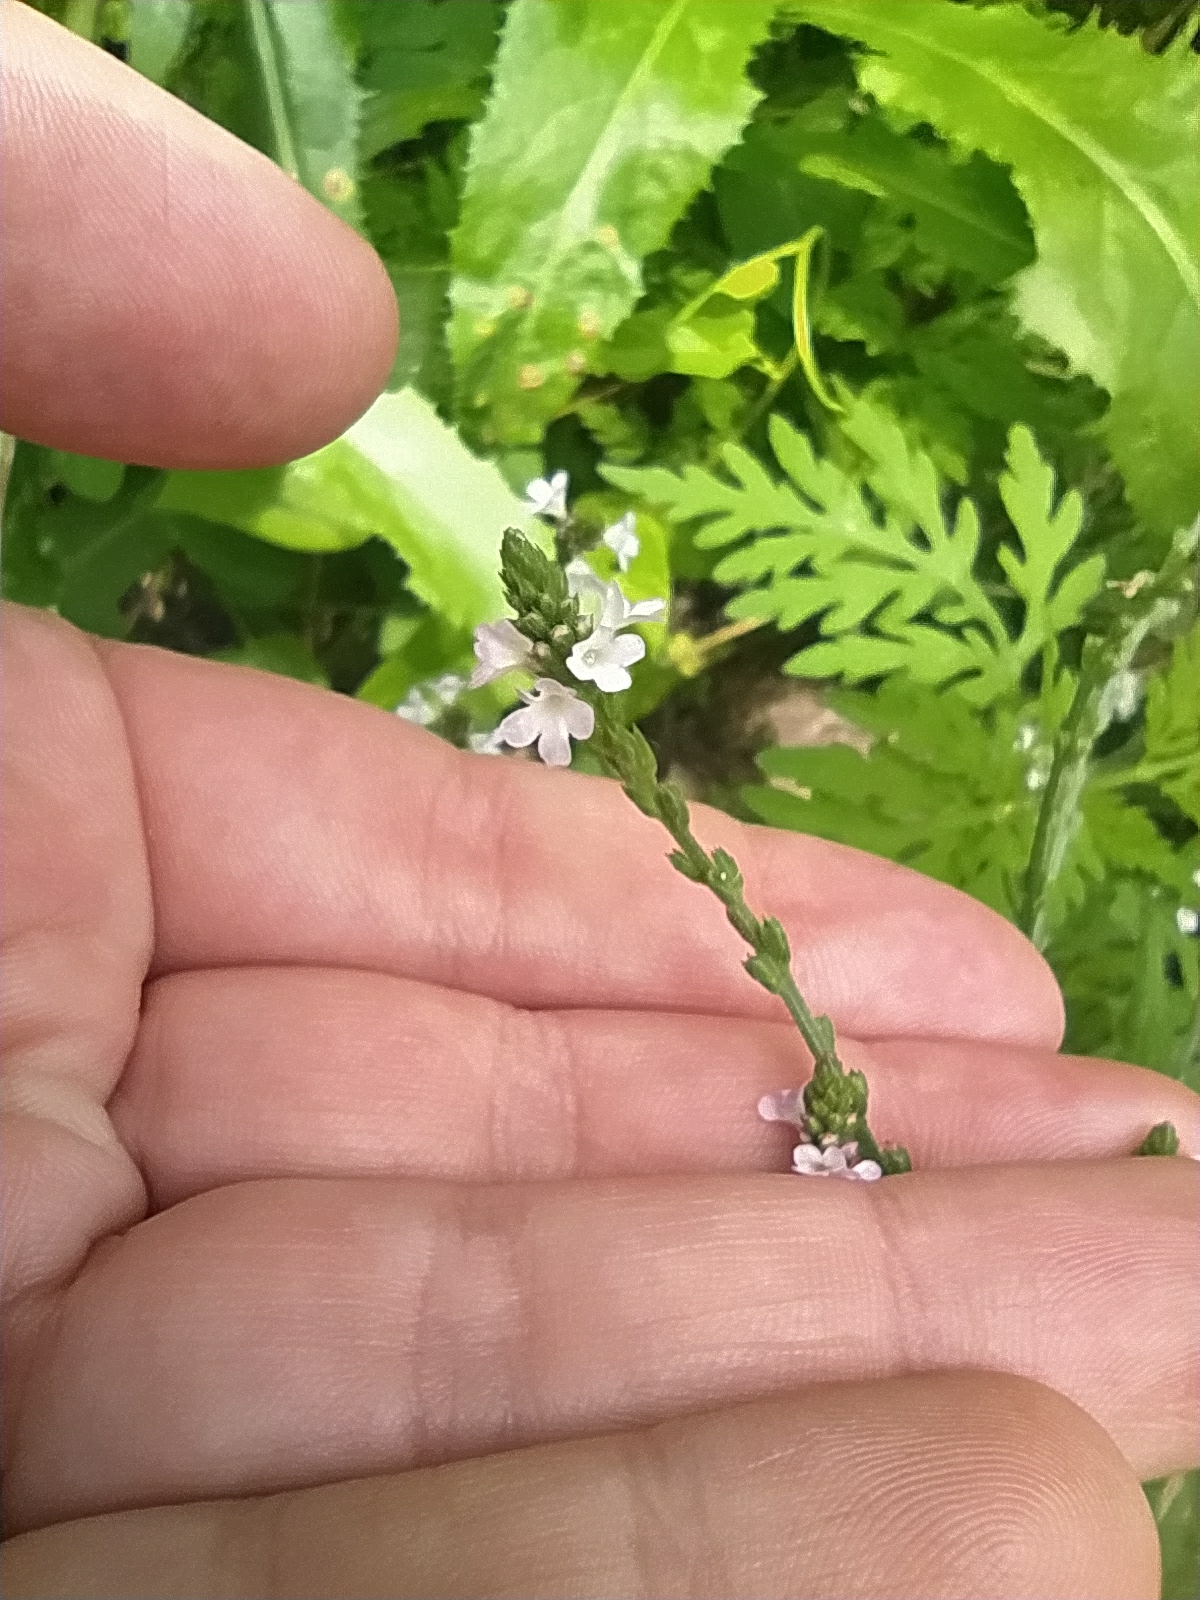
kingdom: Plantae
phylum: Tracheophyta
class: Magnoliopsida
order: Lamiales
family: Verbenaceae
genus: Verbena
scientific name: Verbena officinalis
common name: Vervain
